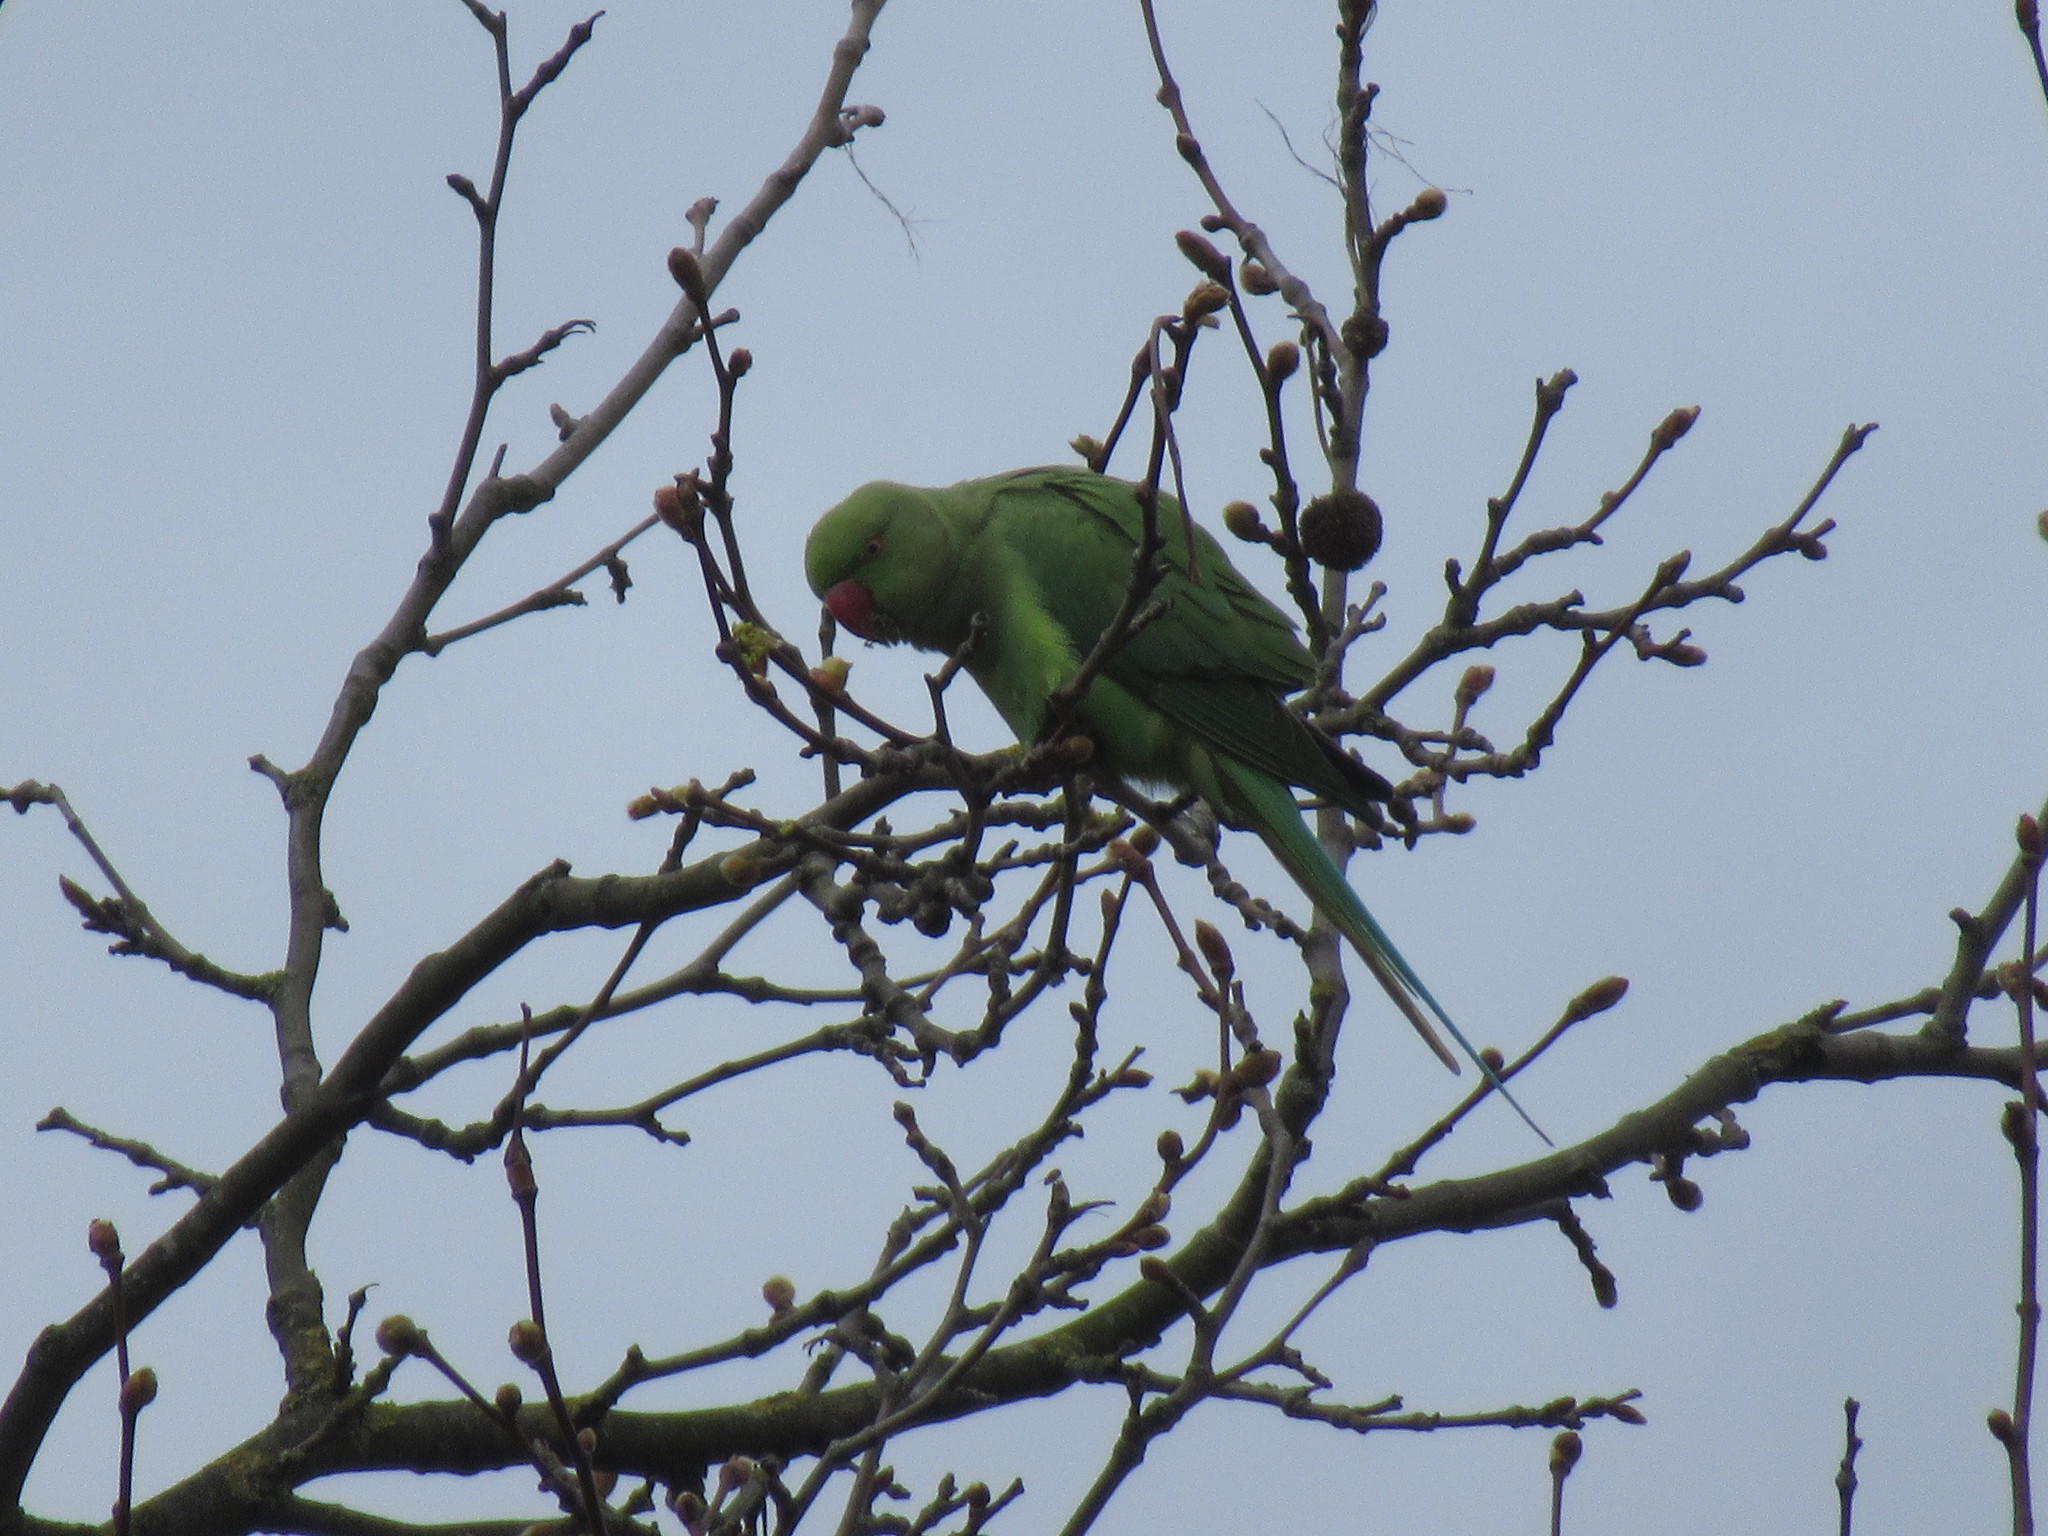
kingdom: Animalia
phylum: Chordata
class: Aves
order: Psittaciformes
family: Psittacidae
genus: Psittacula
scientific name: Psittacula krameri
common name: Rose-ringed parakeet
